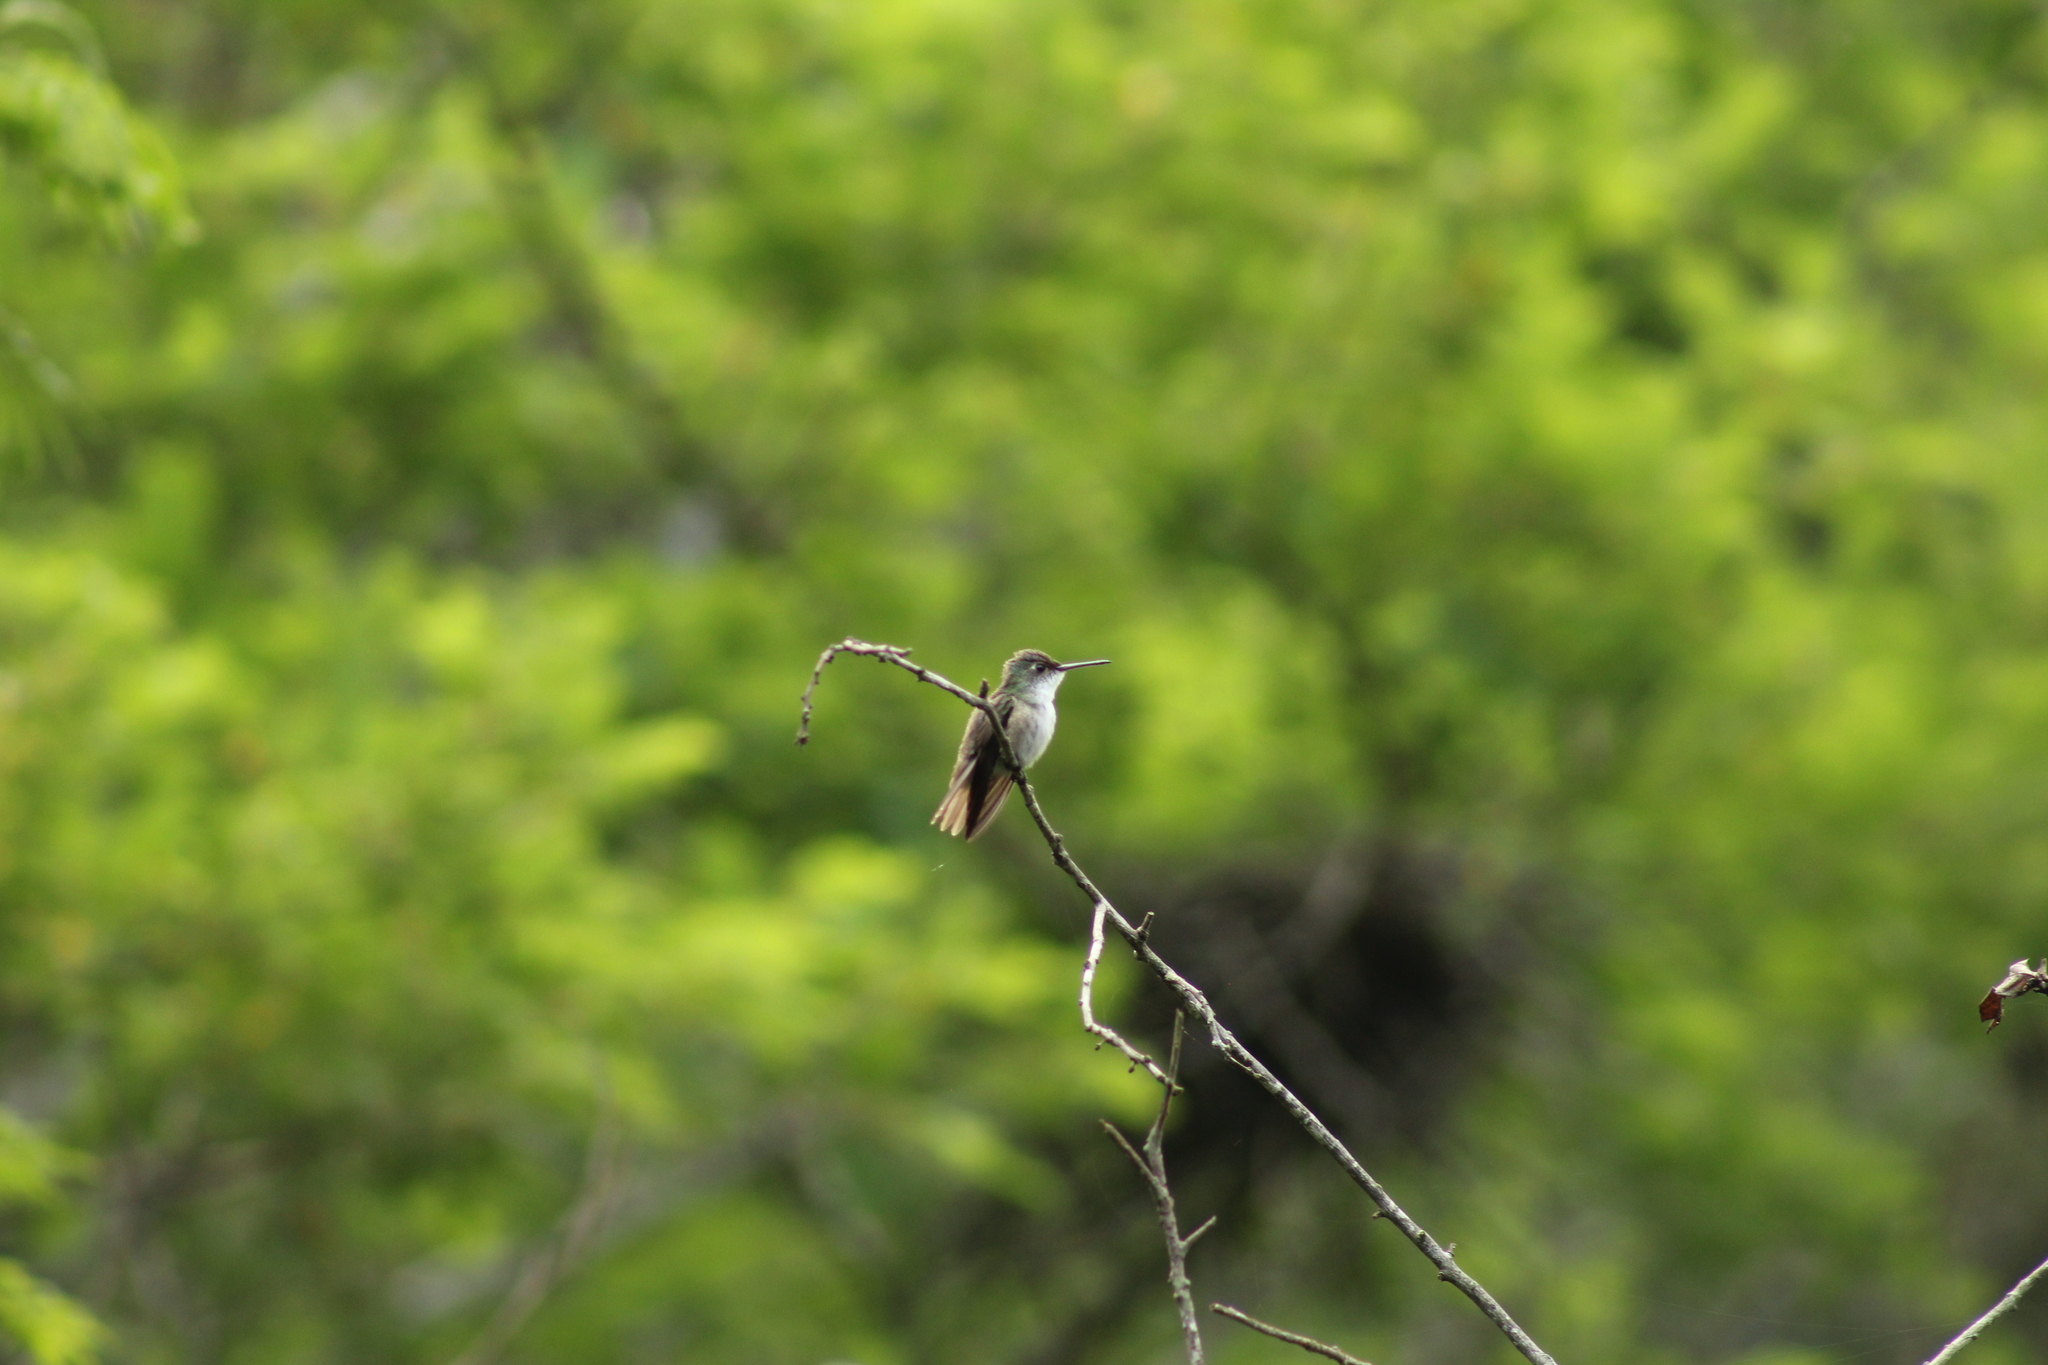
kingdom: Animalia
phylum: Chordata
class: Aves
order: Apodiformes
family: Trochilidae
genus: Saucerottia
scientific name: Saucerottia cyanocephala
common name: Azure-crowned hummingbird
